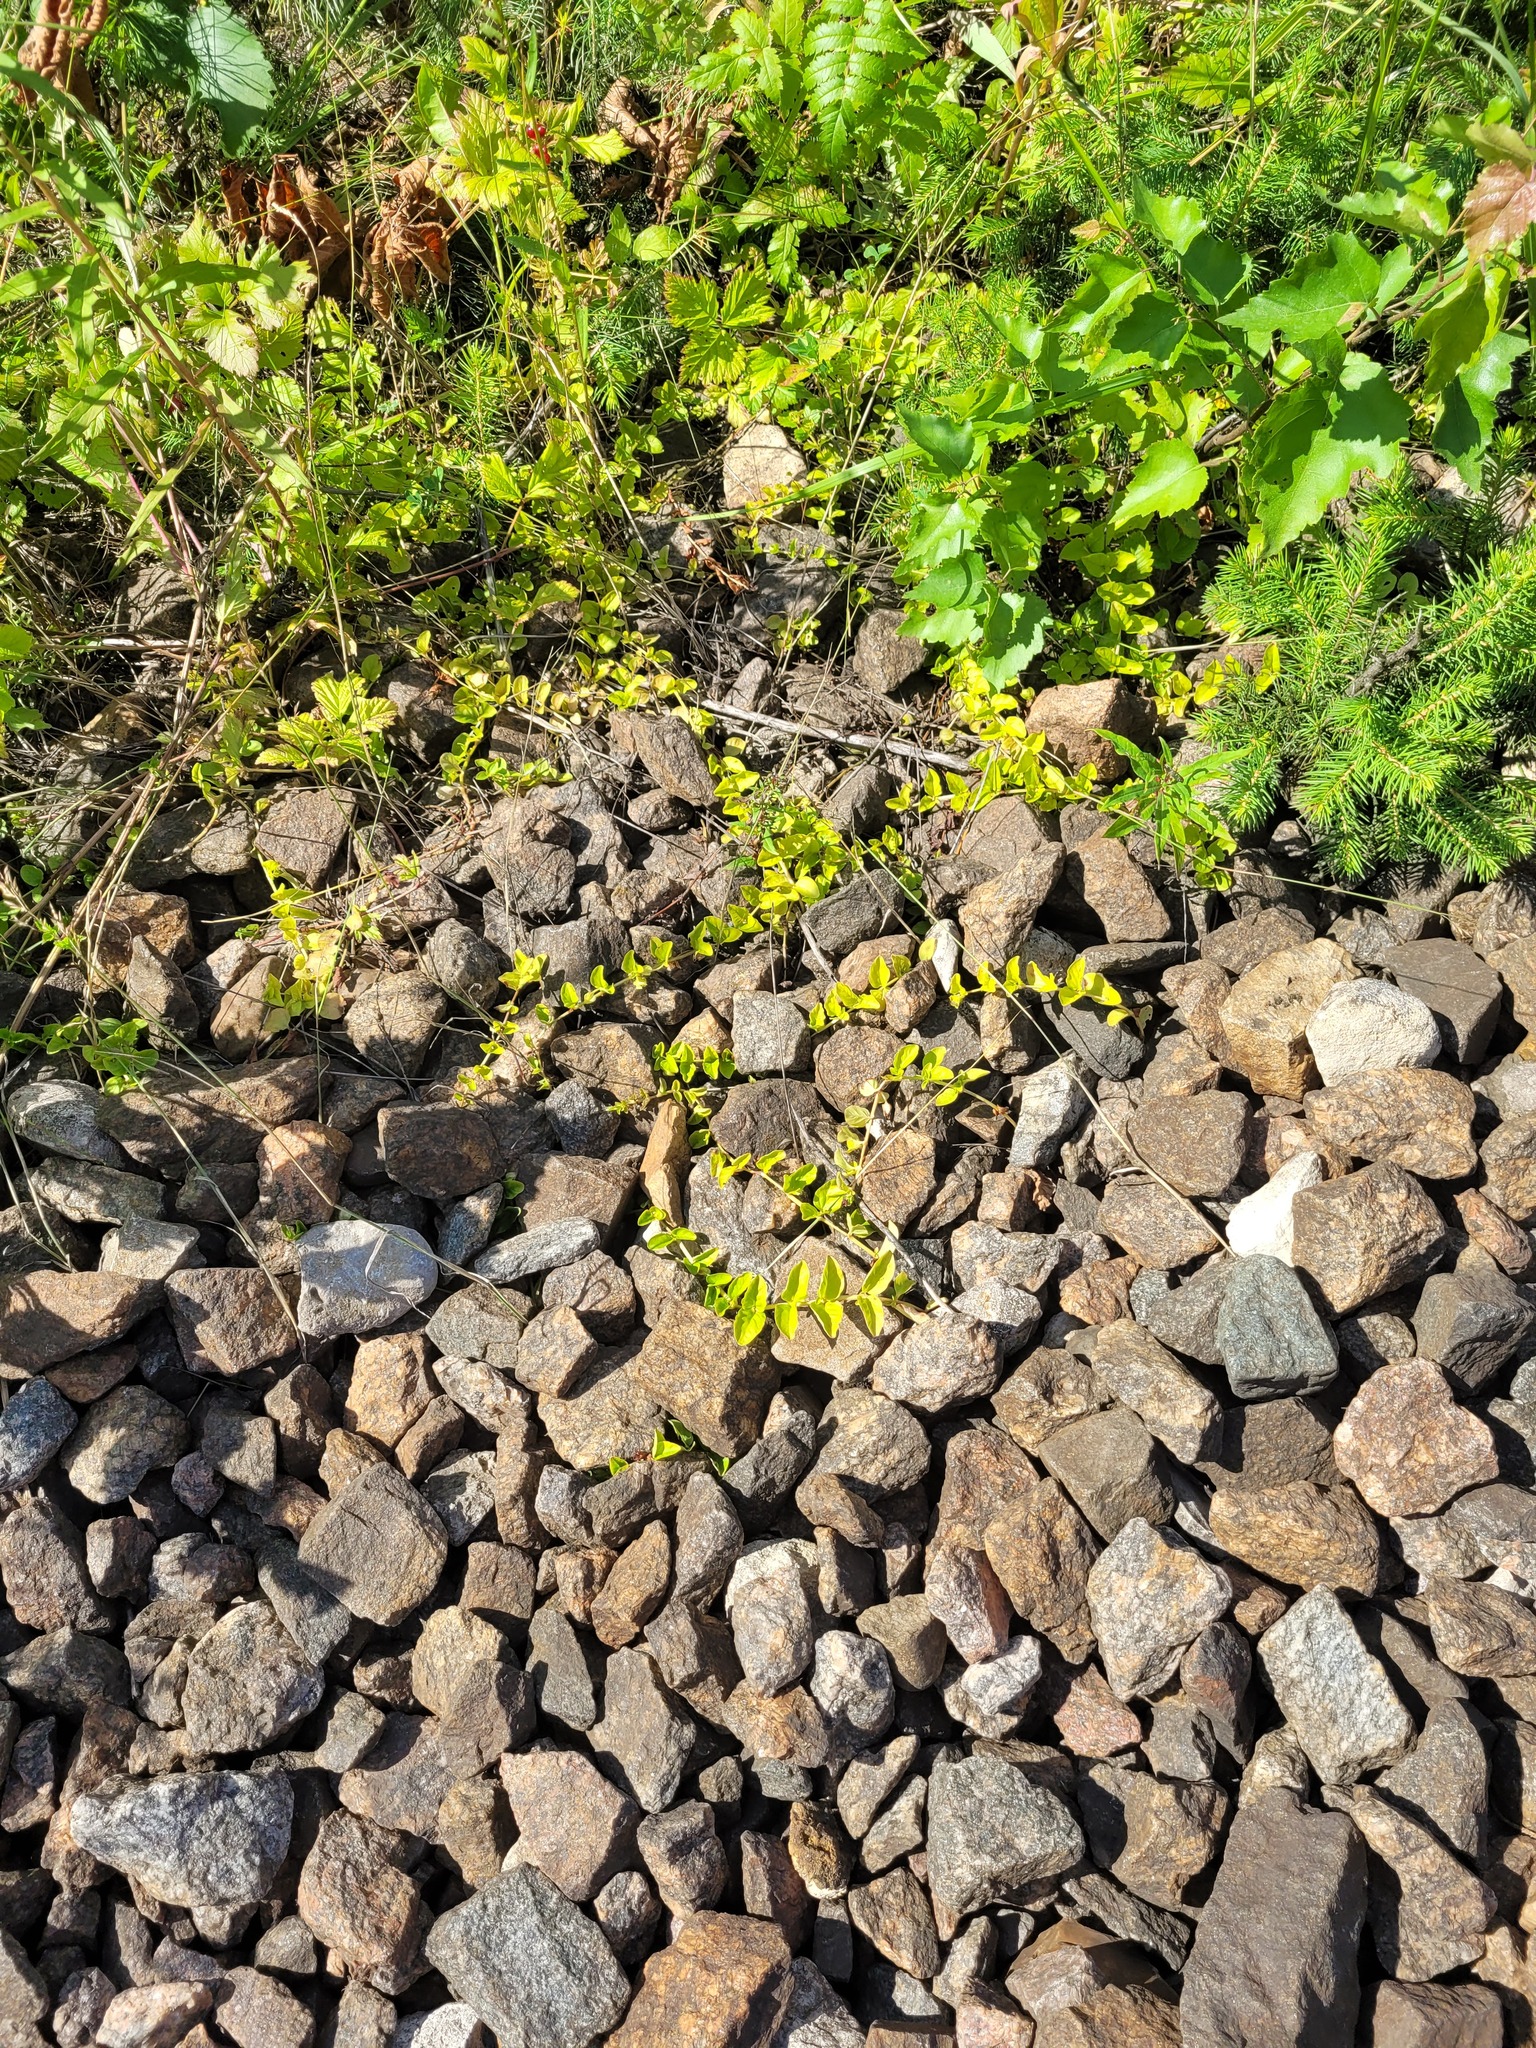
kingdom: Plantae
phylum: Tracheophyta
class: Magnoliopsida
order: Ericales
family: Primulaceae
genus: Lysimachia
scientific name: Lysimachia nummularia
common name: Moneywort
